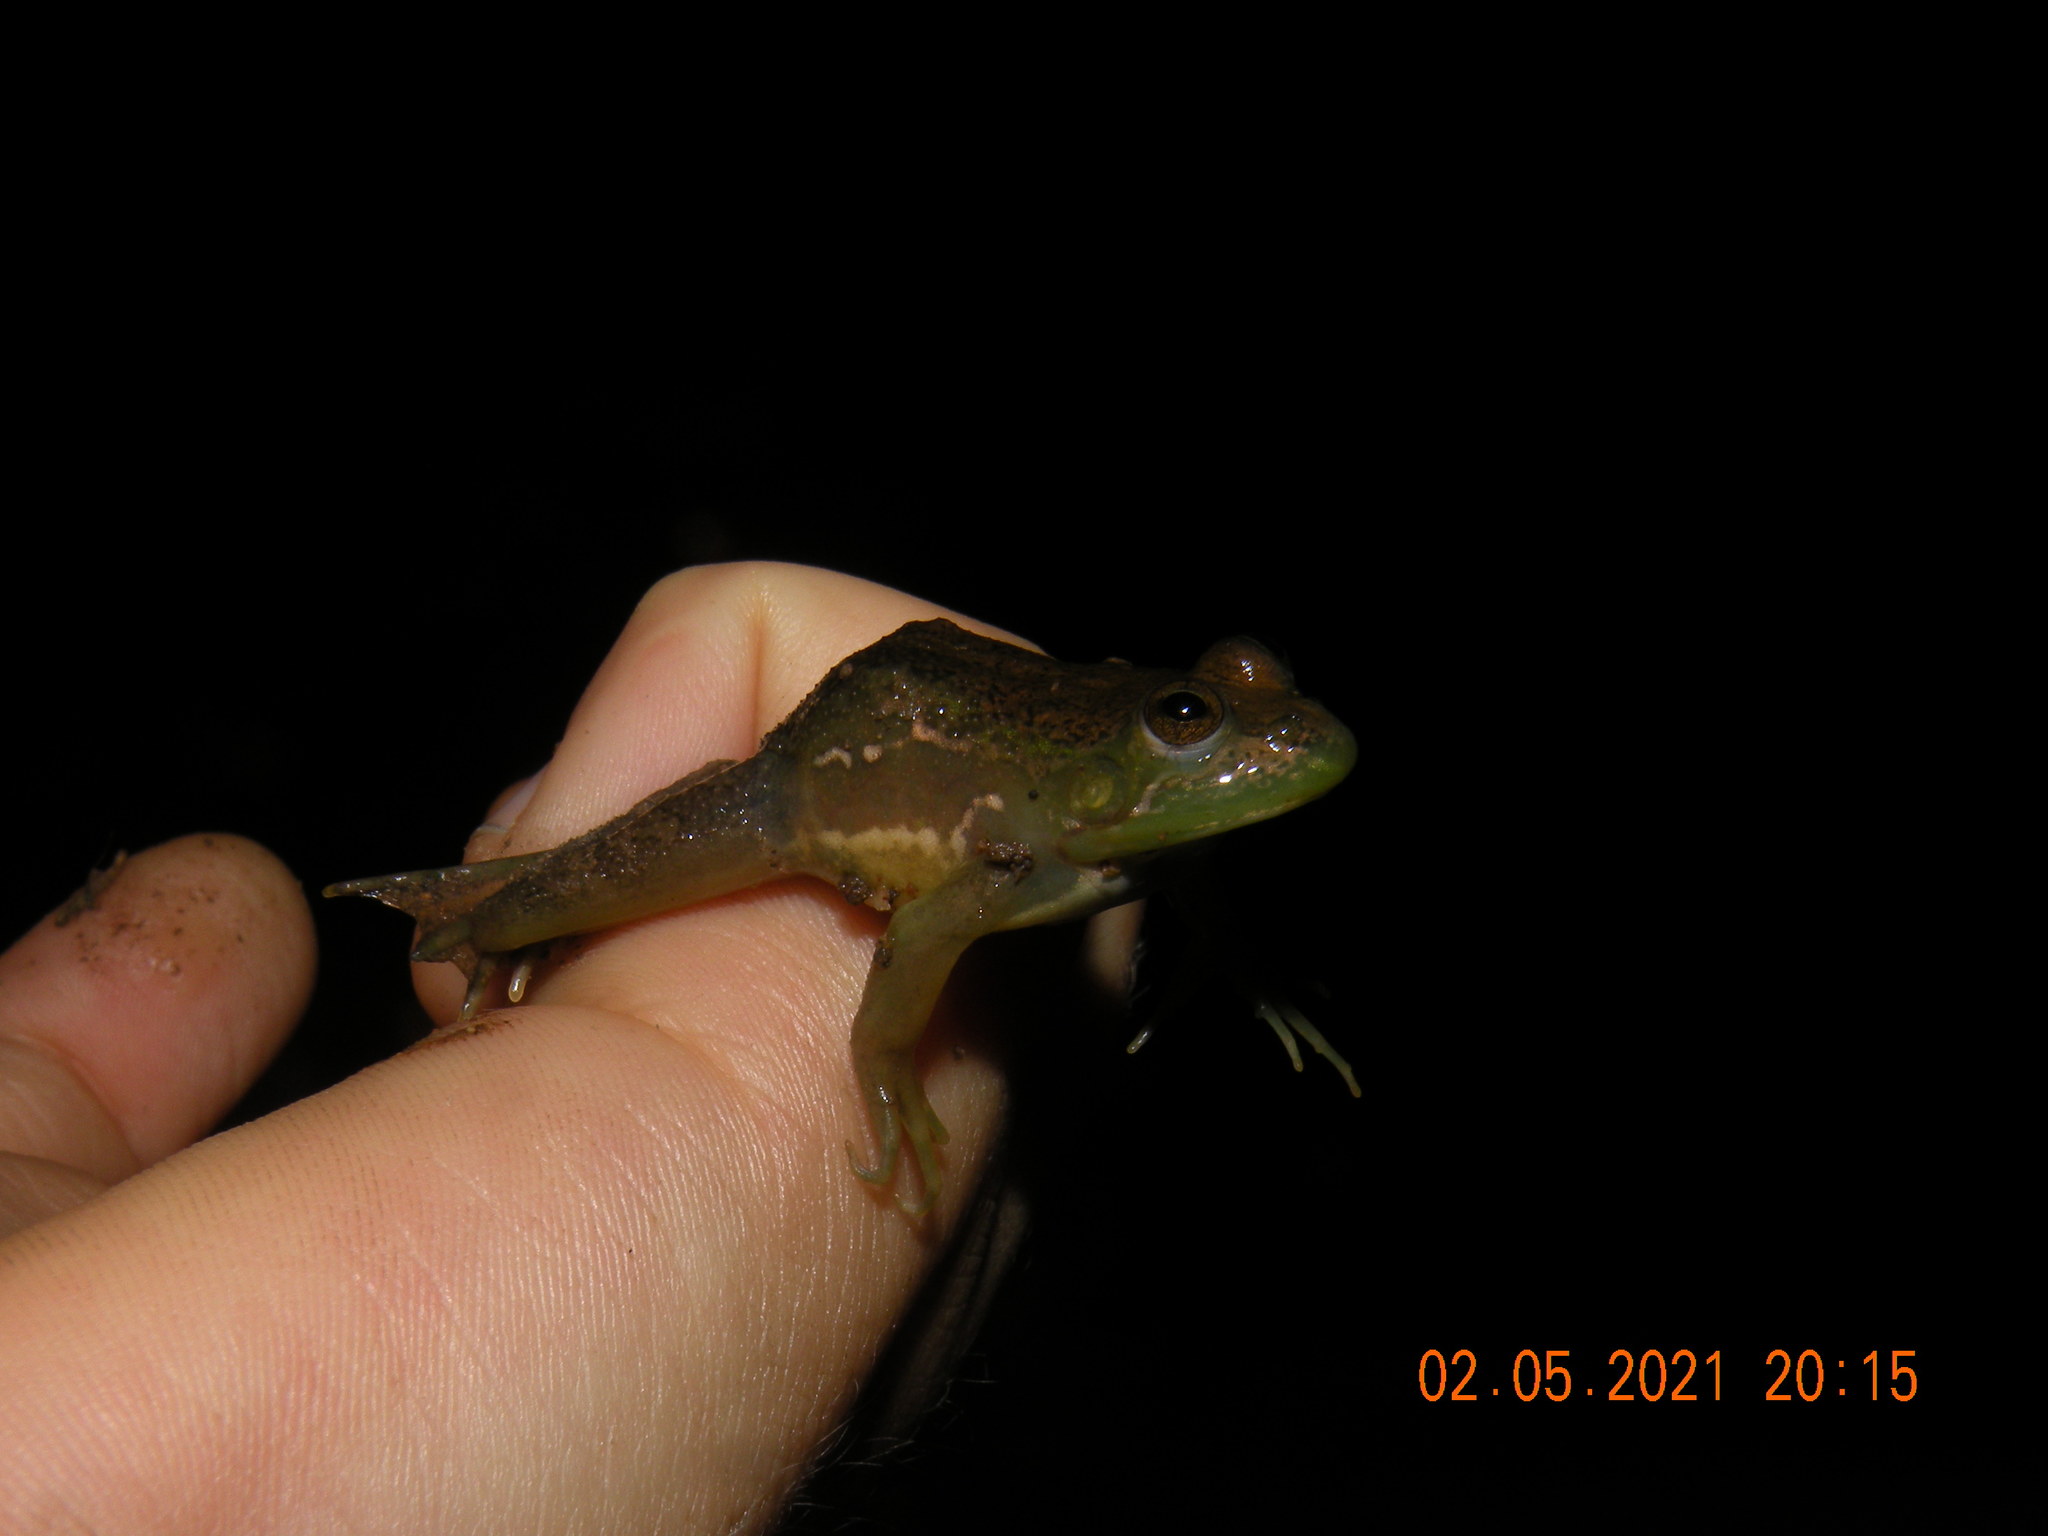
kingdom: Animalia
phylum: Chordata
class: Amphibia
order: Anura
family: Hylidae
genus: Pseudis
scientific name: Pseudis minuta
